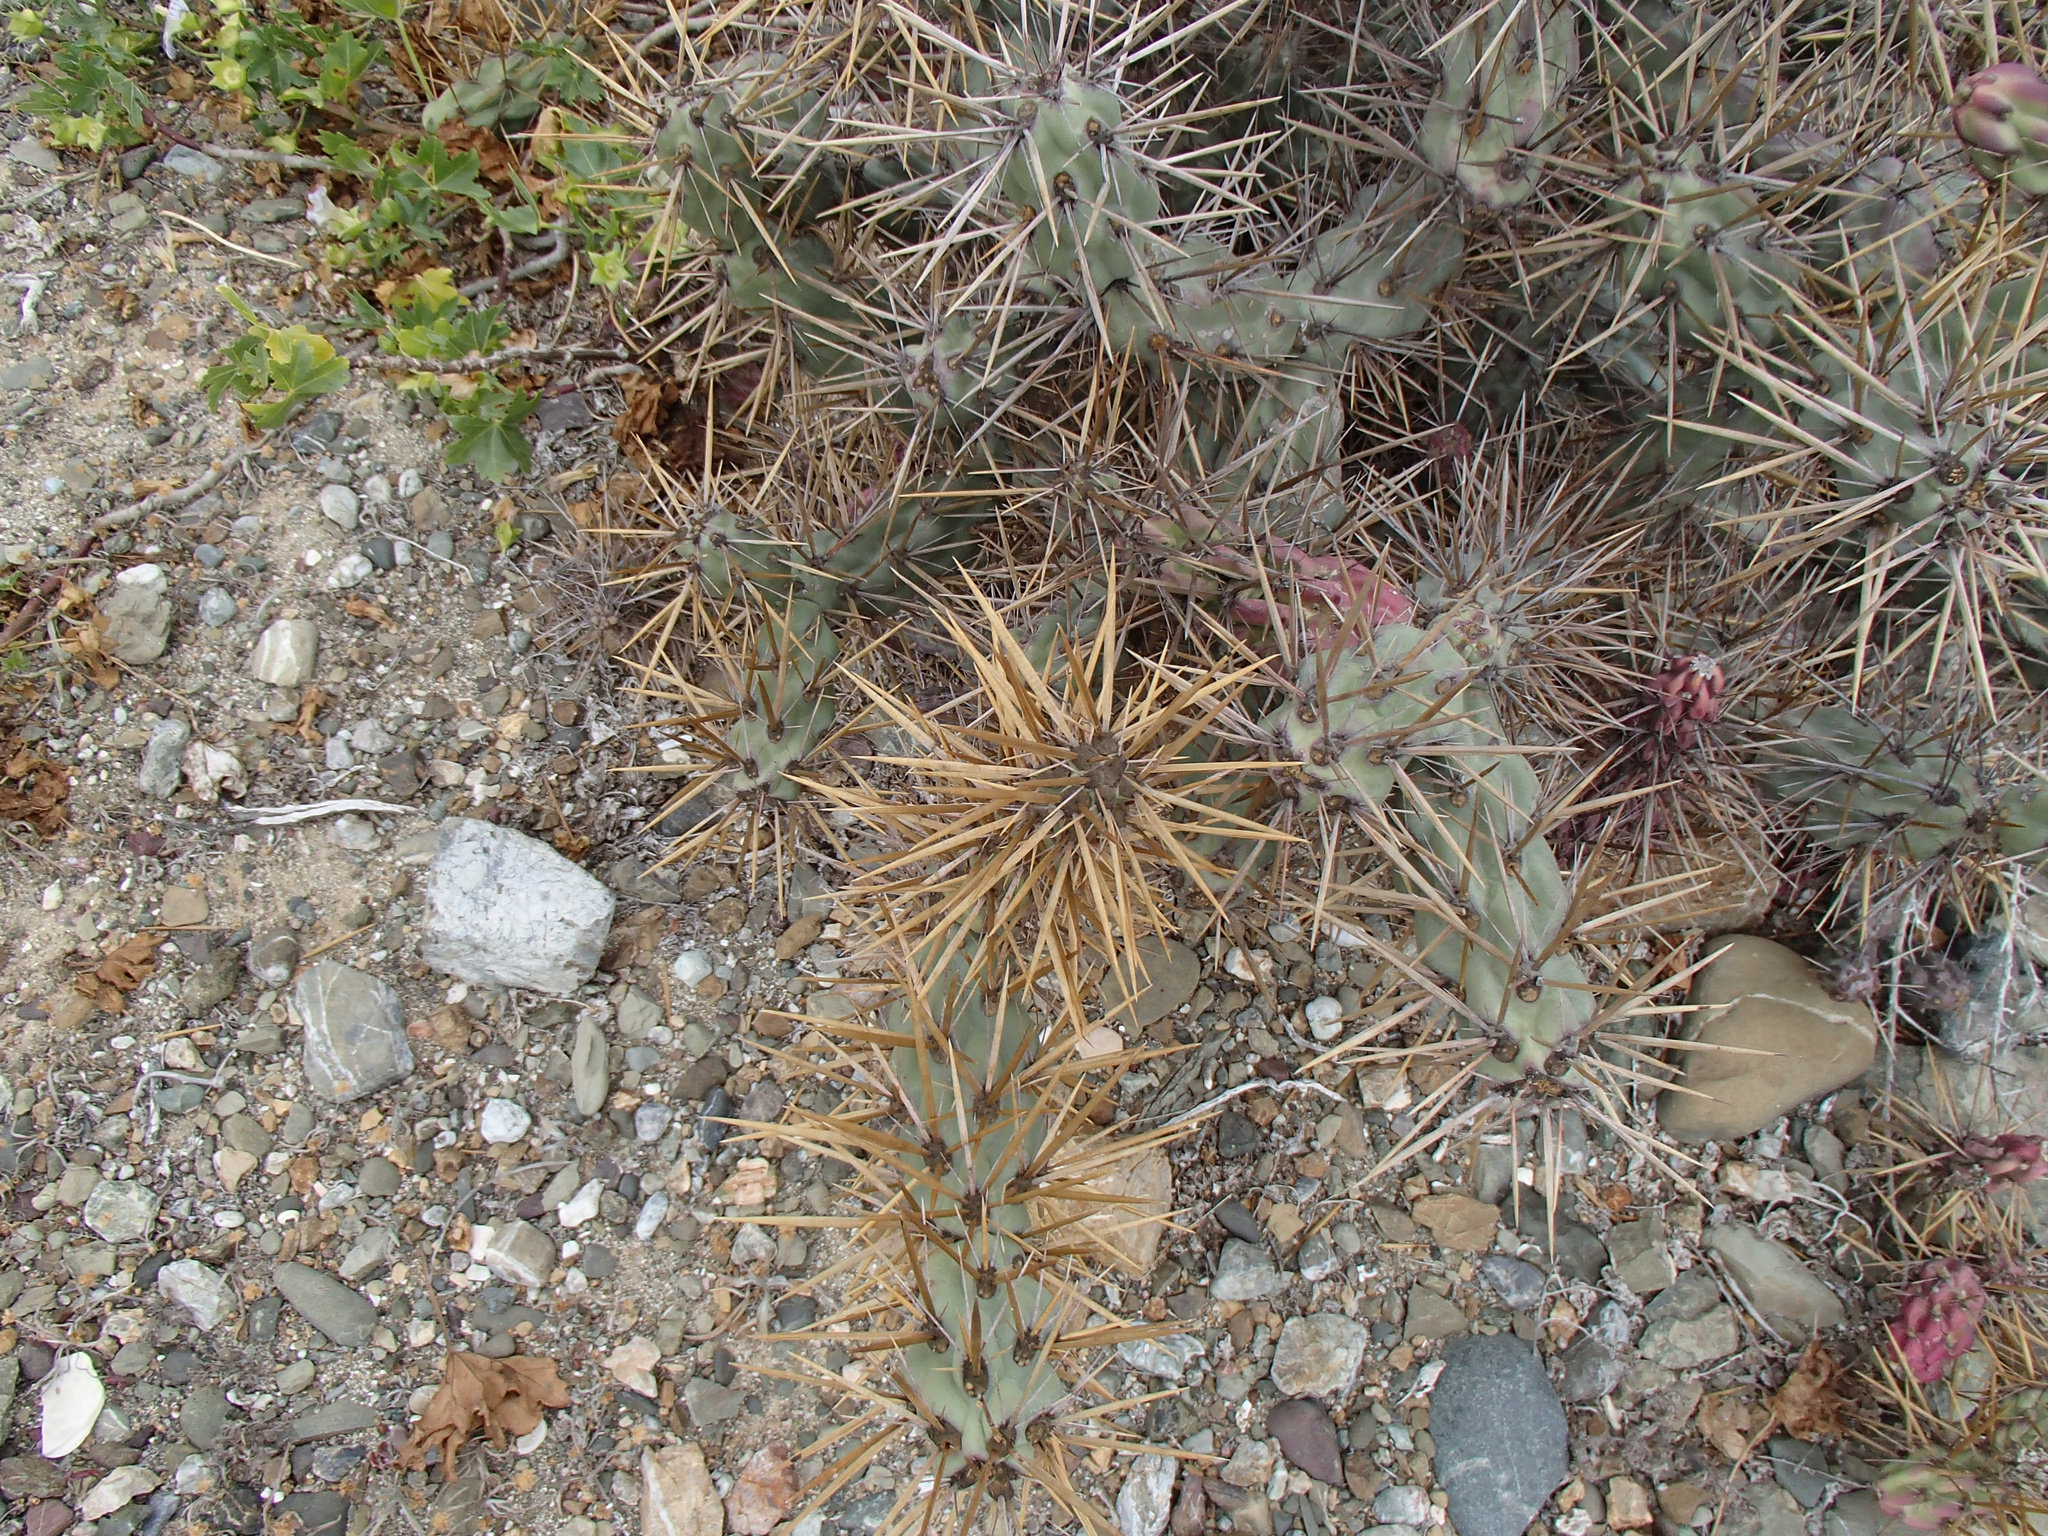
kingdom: Plantae
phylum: Tracheophyta
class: Magnoliopsida
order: Caryophyllales
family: Cactaceae
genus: Cylindropuntia
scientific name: Cylindropuntia cedrosensis
